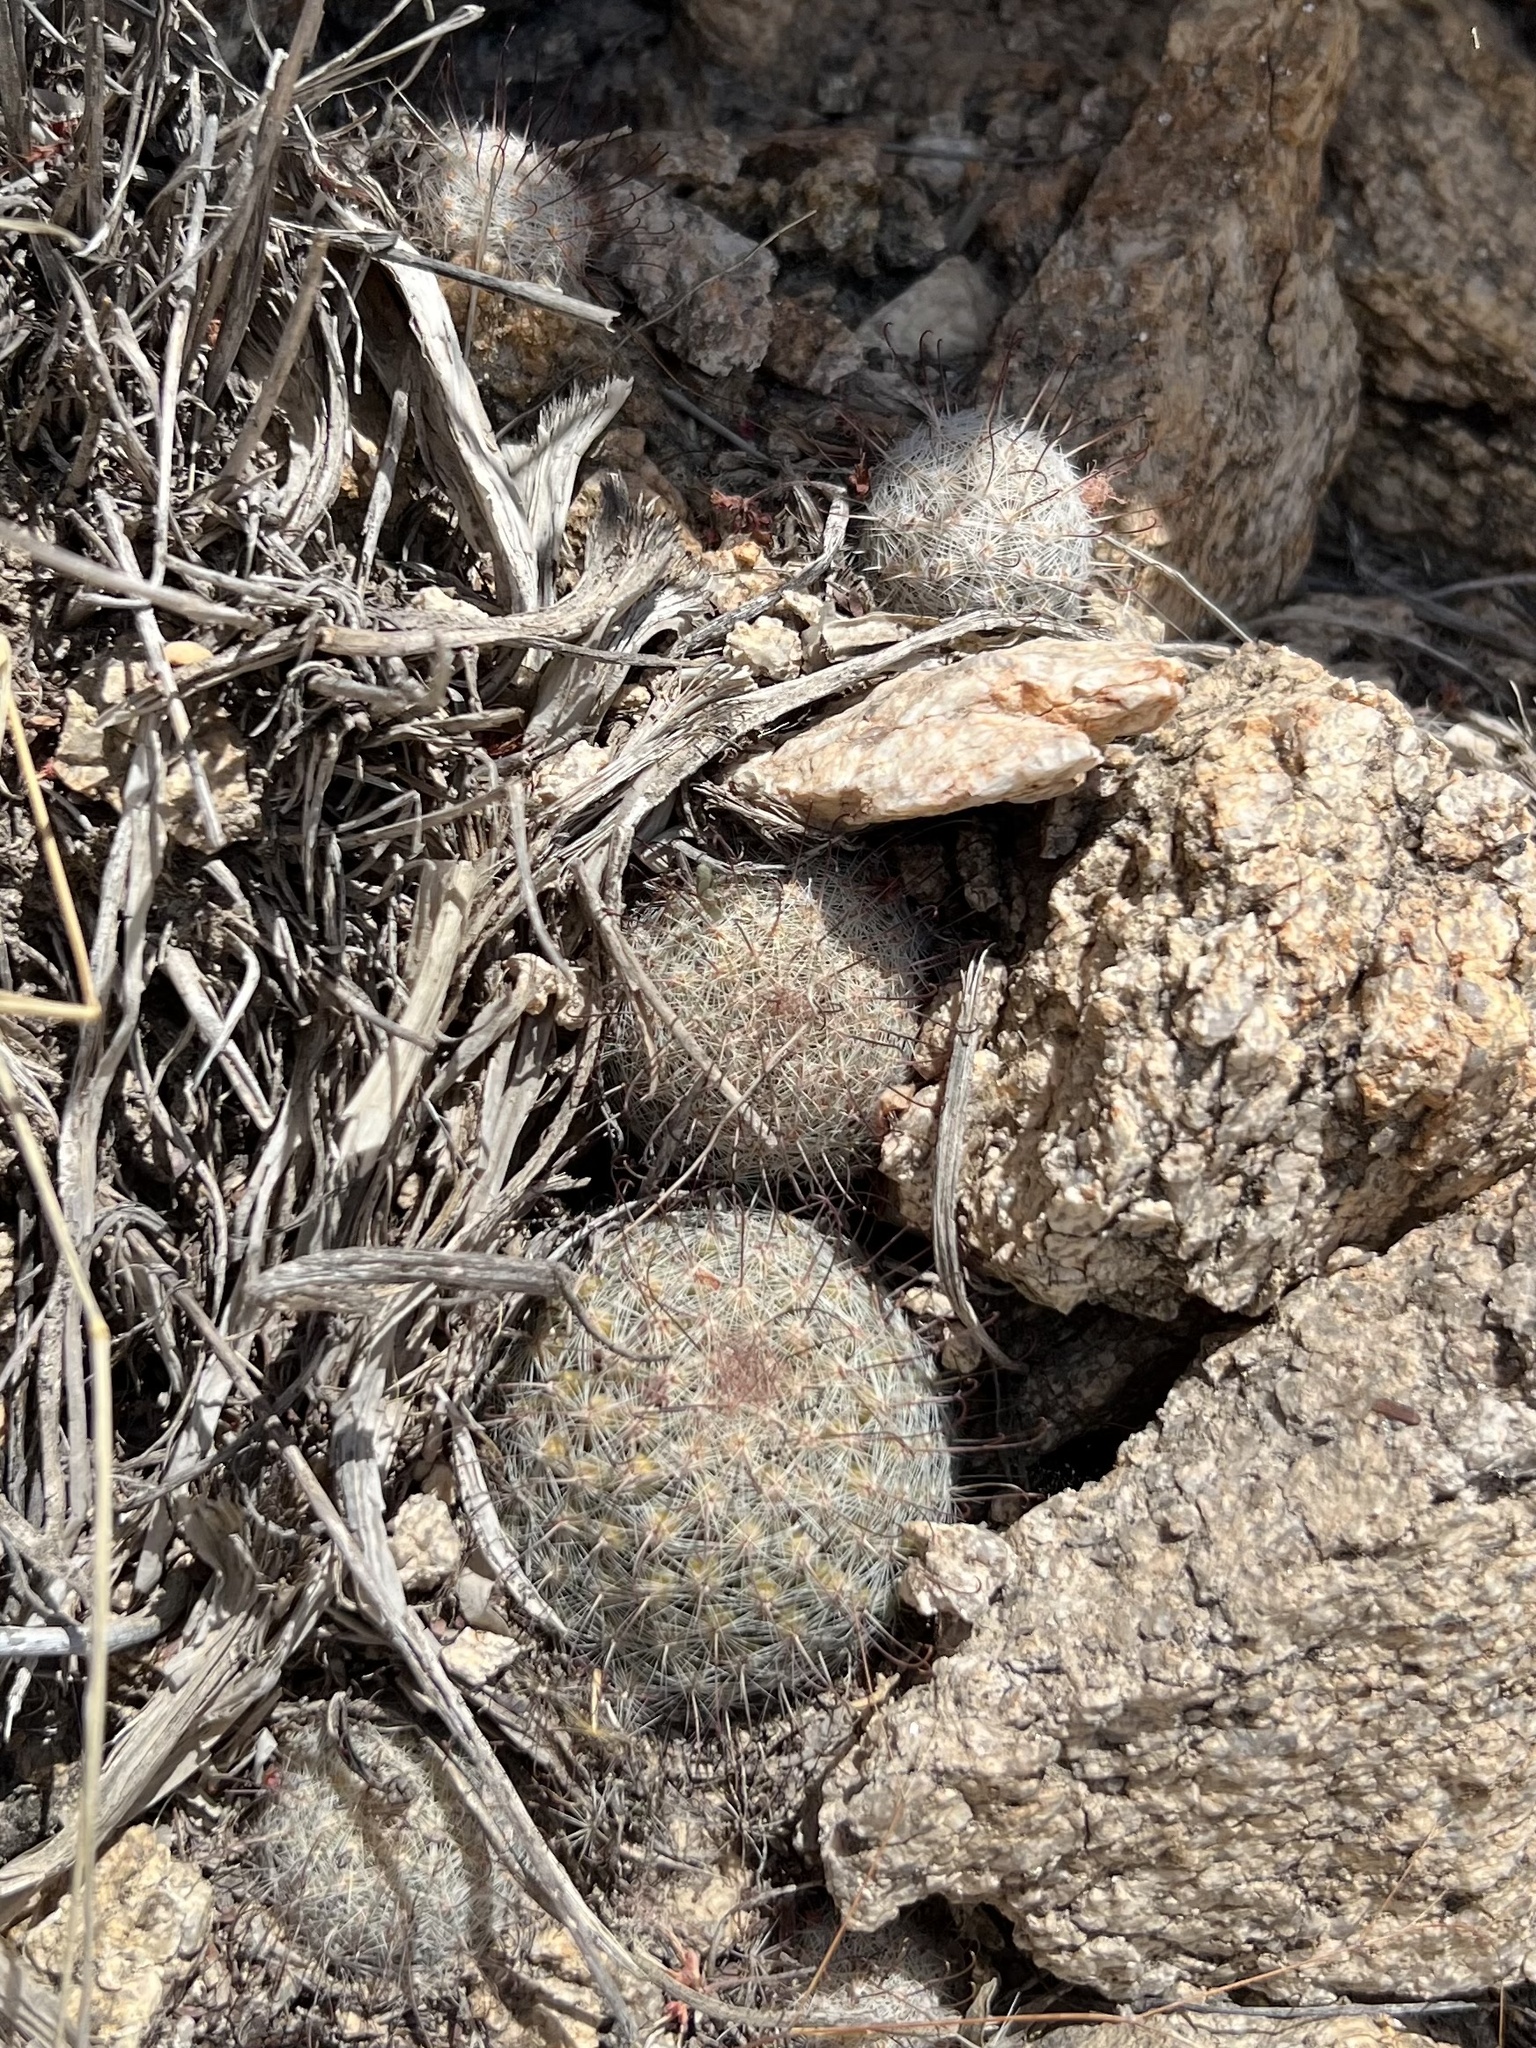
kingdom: Plantae
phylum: Tracheophyta
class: Magnoliopsida
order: Caryophyllales
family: Cactaceae
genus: Cochemiea
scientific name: Cochemiea grahamii
